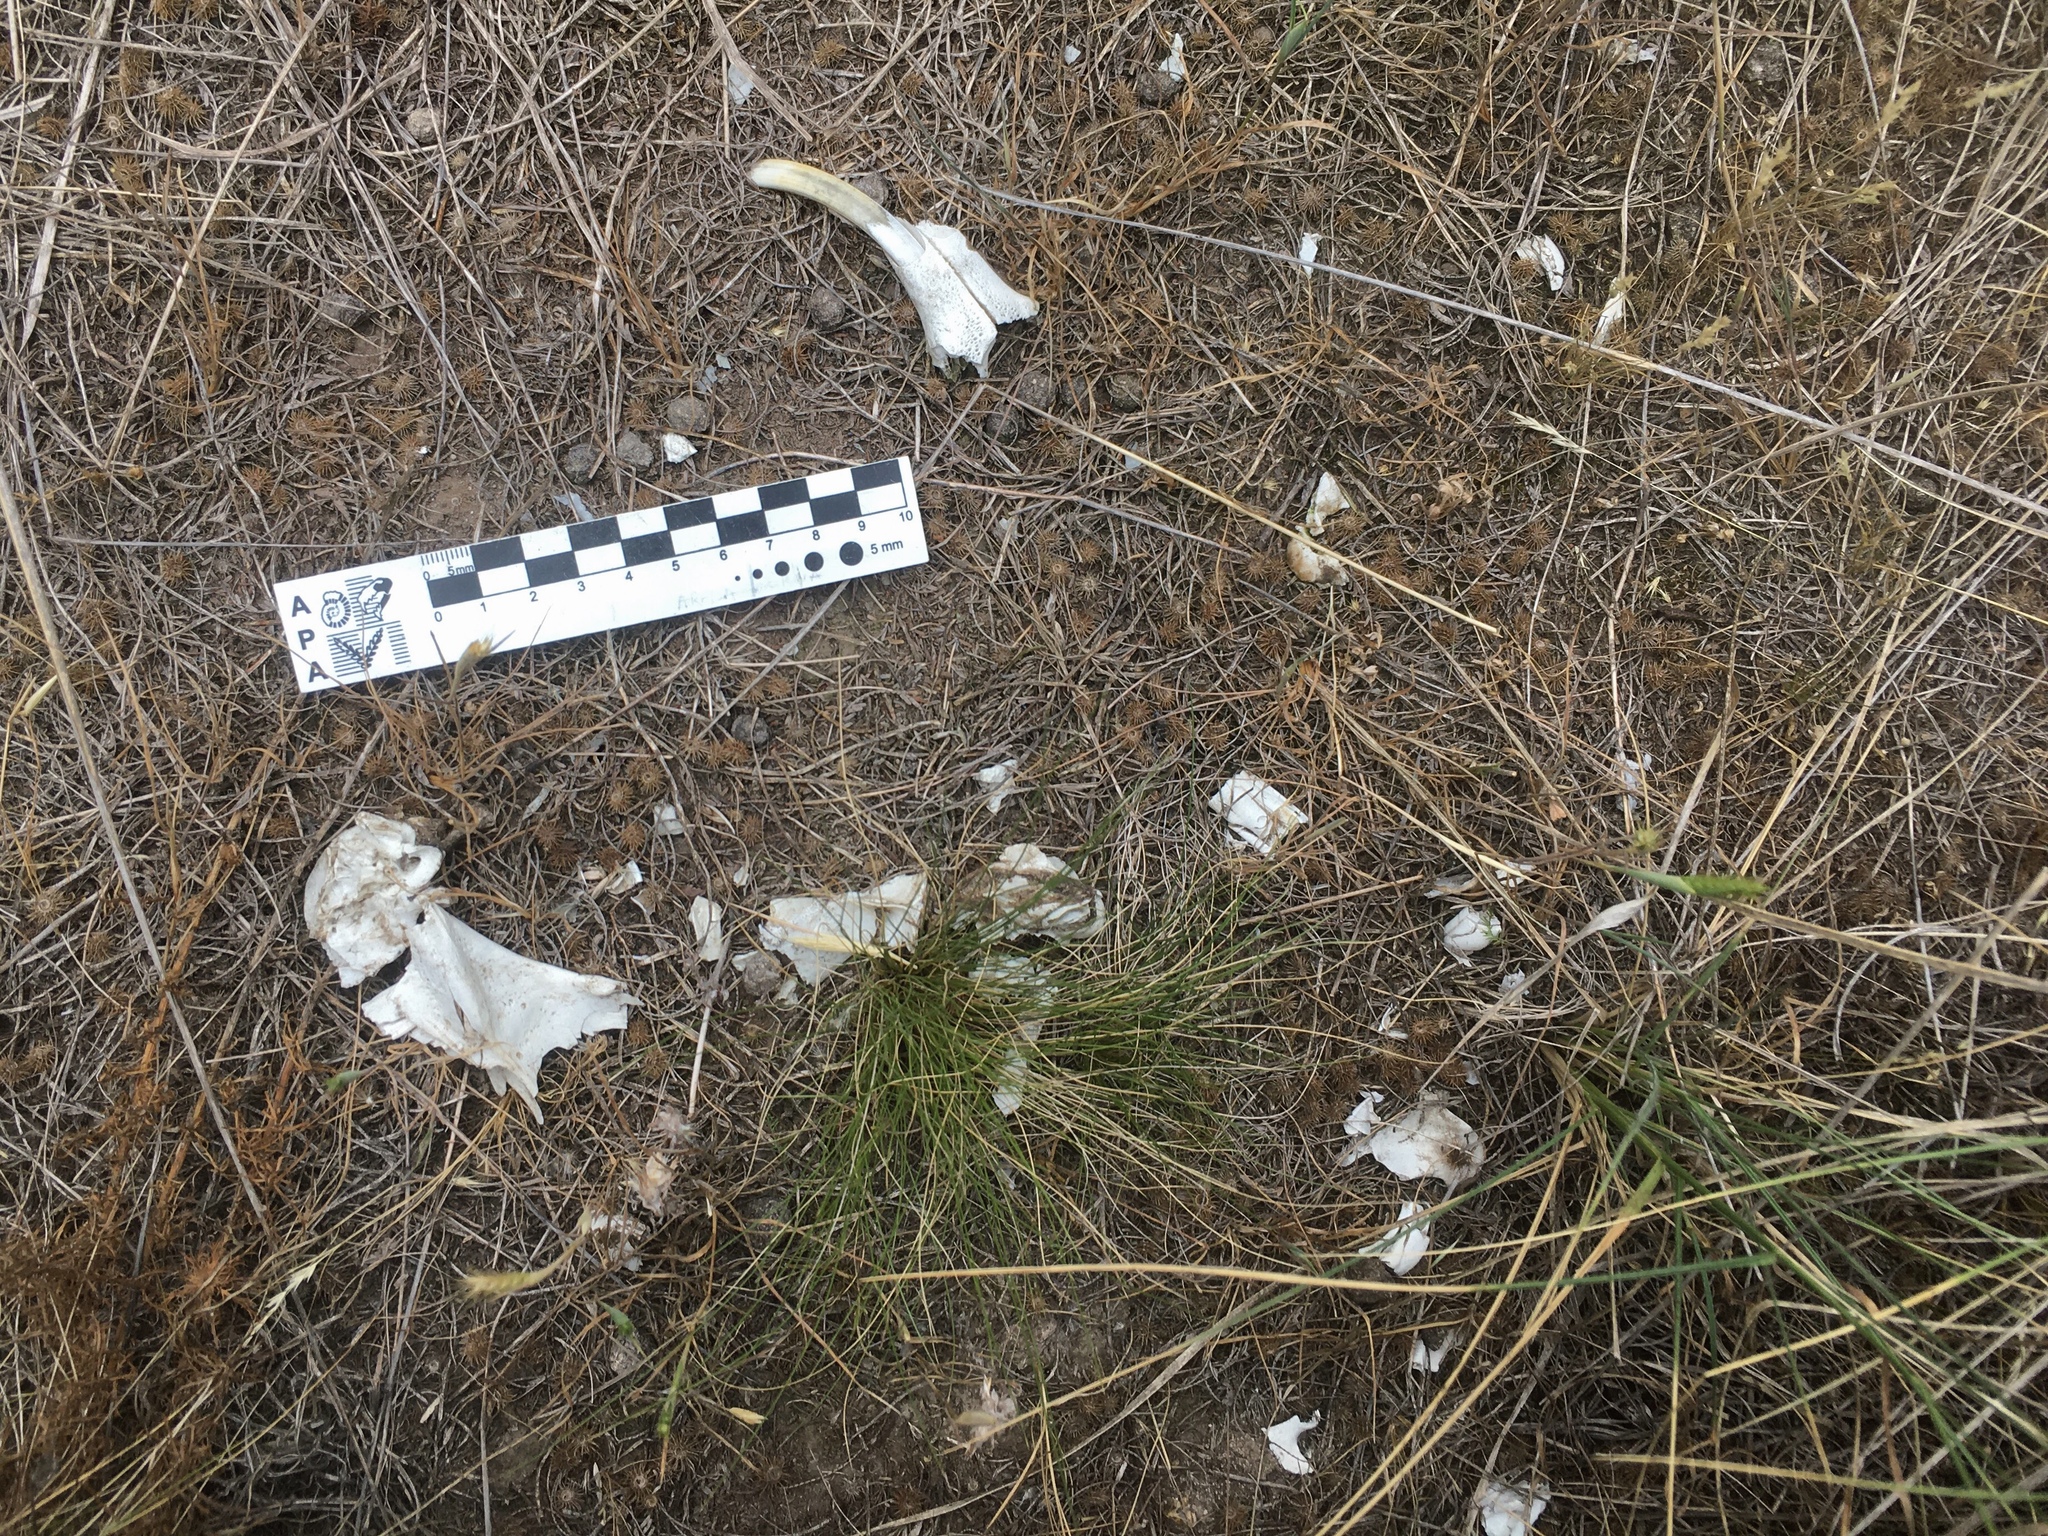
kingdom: Animalia
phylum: Chordata
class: Mammalia
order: Rodentia
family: Chinchillidae
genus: Lagostomus
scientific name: Lagostomus maximus
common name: Plains viscacha
